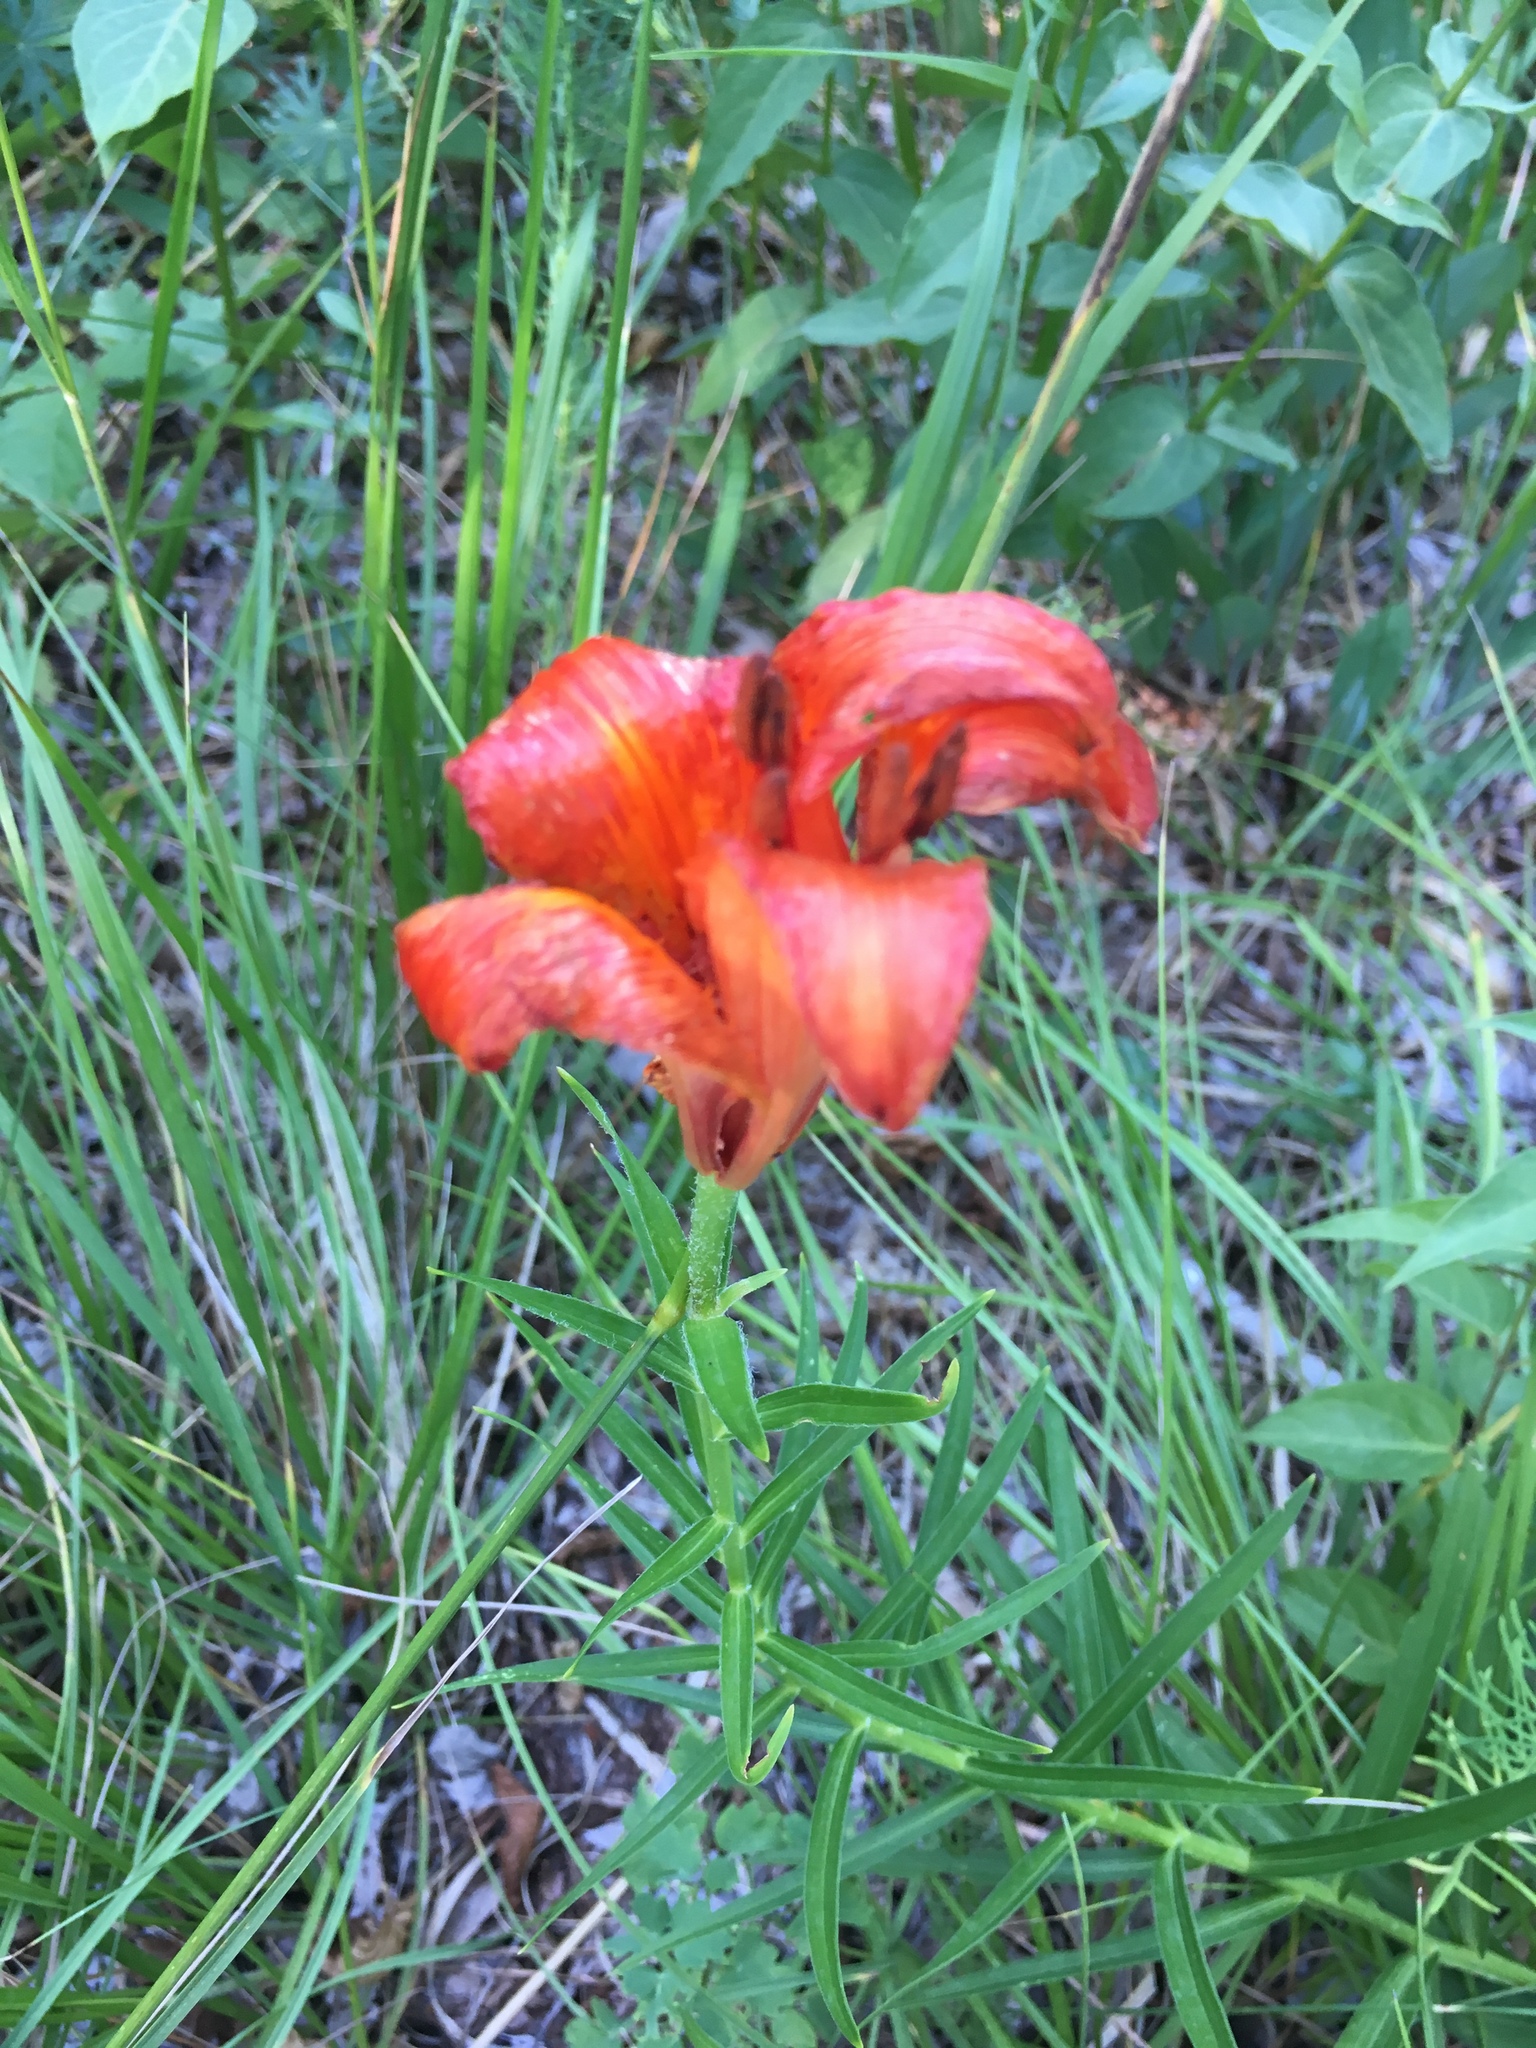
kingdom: Plantae
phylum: Tracheophyta
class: Liliopsida
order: Liliales
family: Liliaceae
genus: Lilium
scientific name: Lilium bulbiferum
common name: Orange lily
